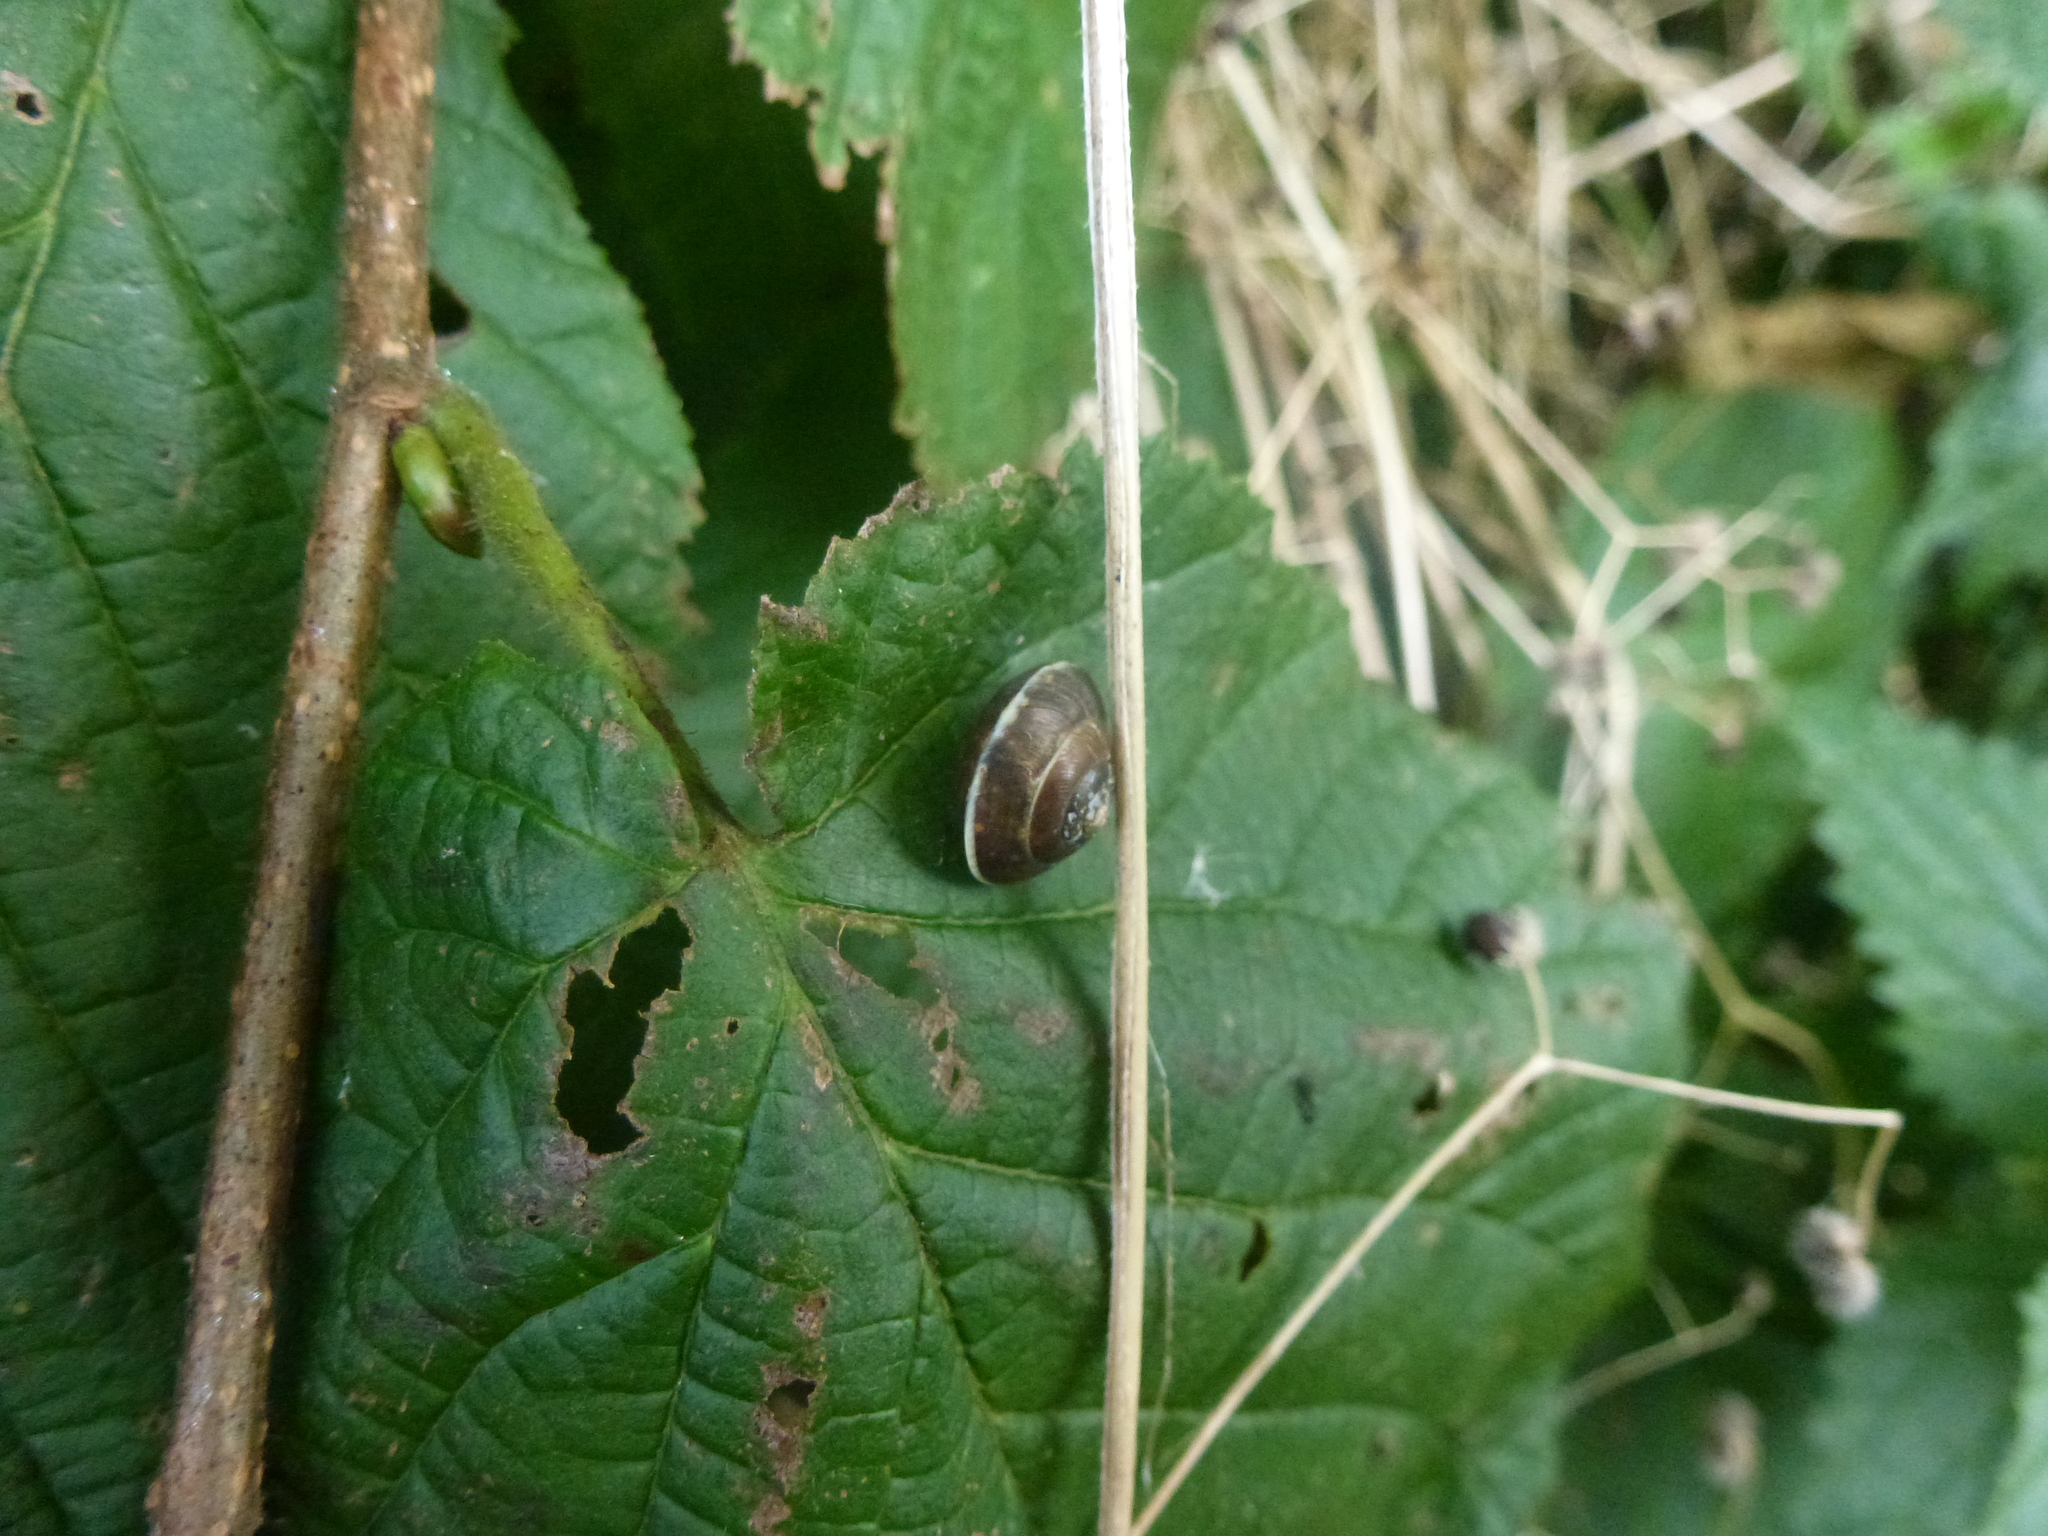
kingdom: Animalia
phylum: Mollusca
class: Gastropoda
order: Stylommatophora
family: Hygromiidae
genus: Hygromia
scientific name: Hygromia cinctella
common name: Girdled snail
